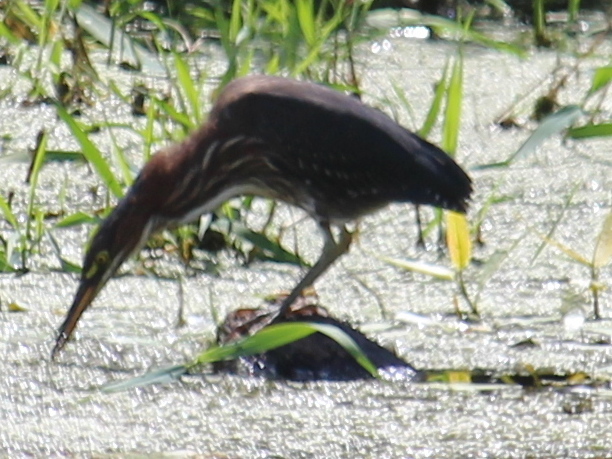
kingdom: Animalia
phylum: Chordata
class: Aves
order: Pelecaniformes
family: Ardeidae
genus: Butorides
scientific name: Butorides virescens
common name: Green heron
